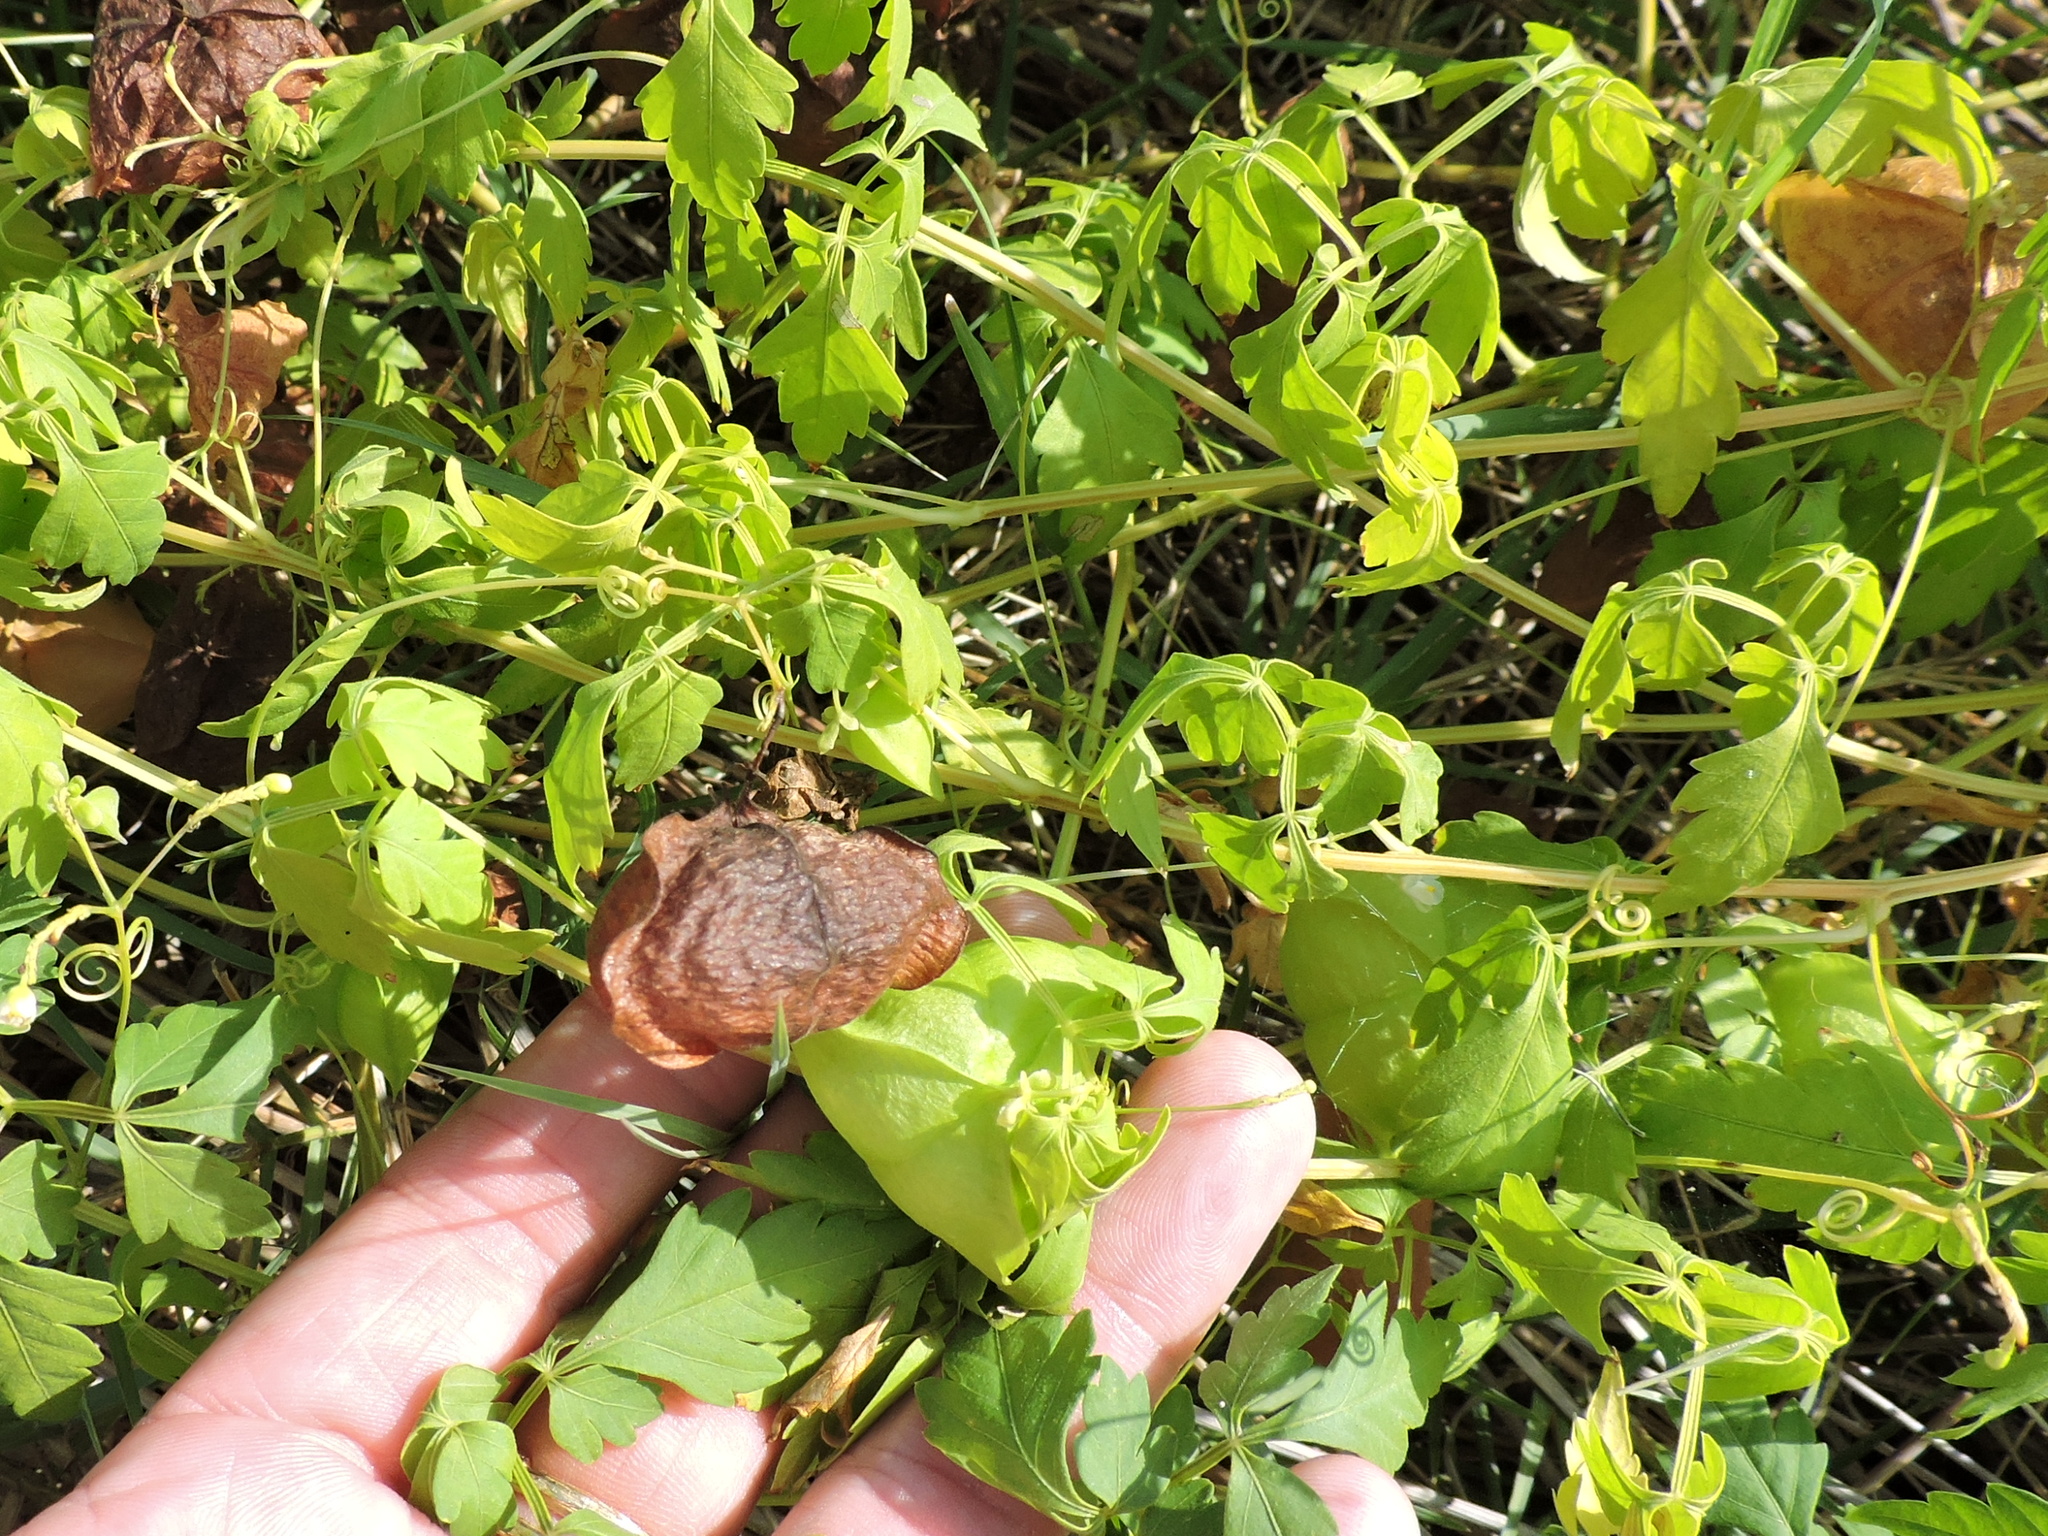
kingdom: Plantae
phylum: Tracheophyta
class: Magnoliopsida
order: Sapindales
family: Sapindaceae
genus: Cardiospermum
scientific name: Cardiospermum halicacabum
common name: Balloon vine
